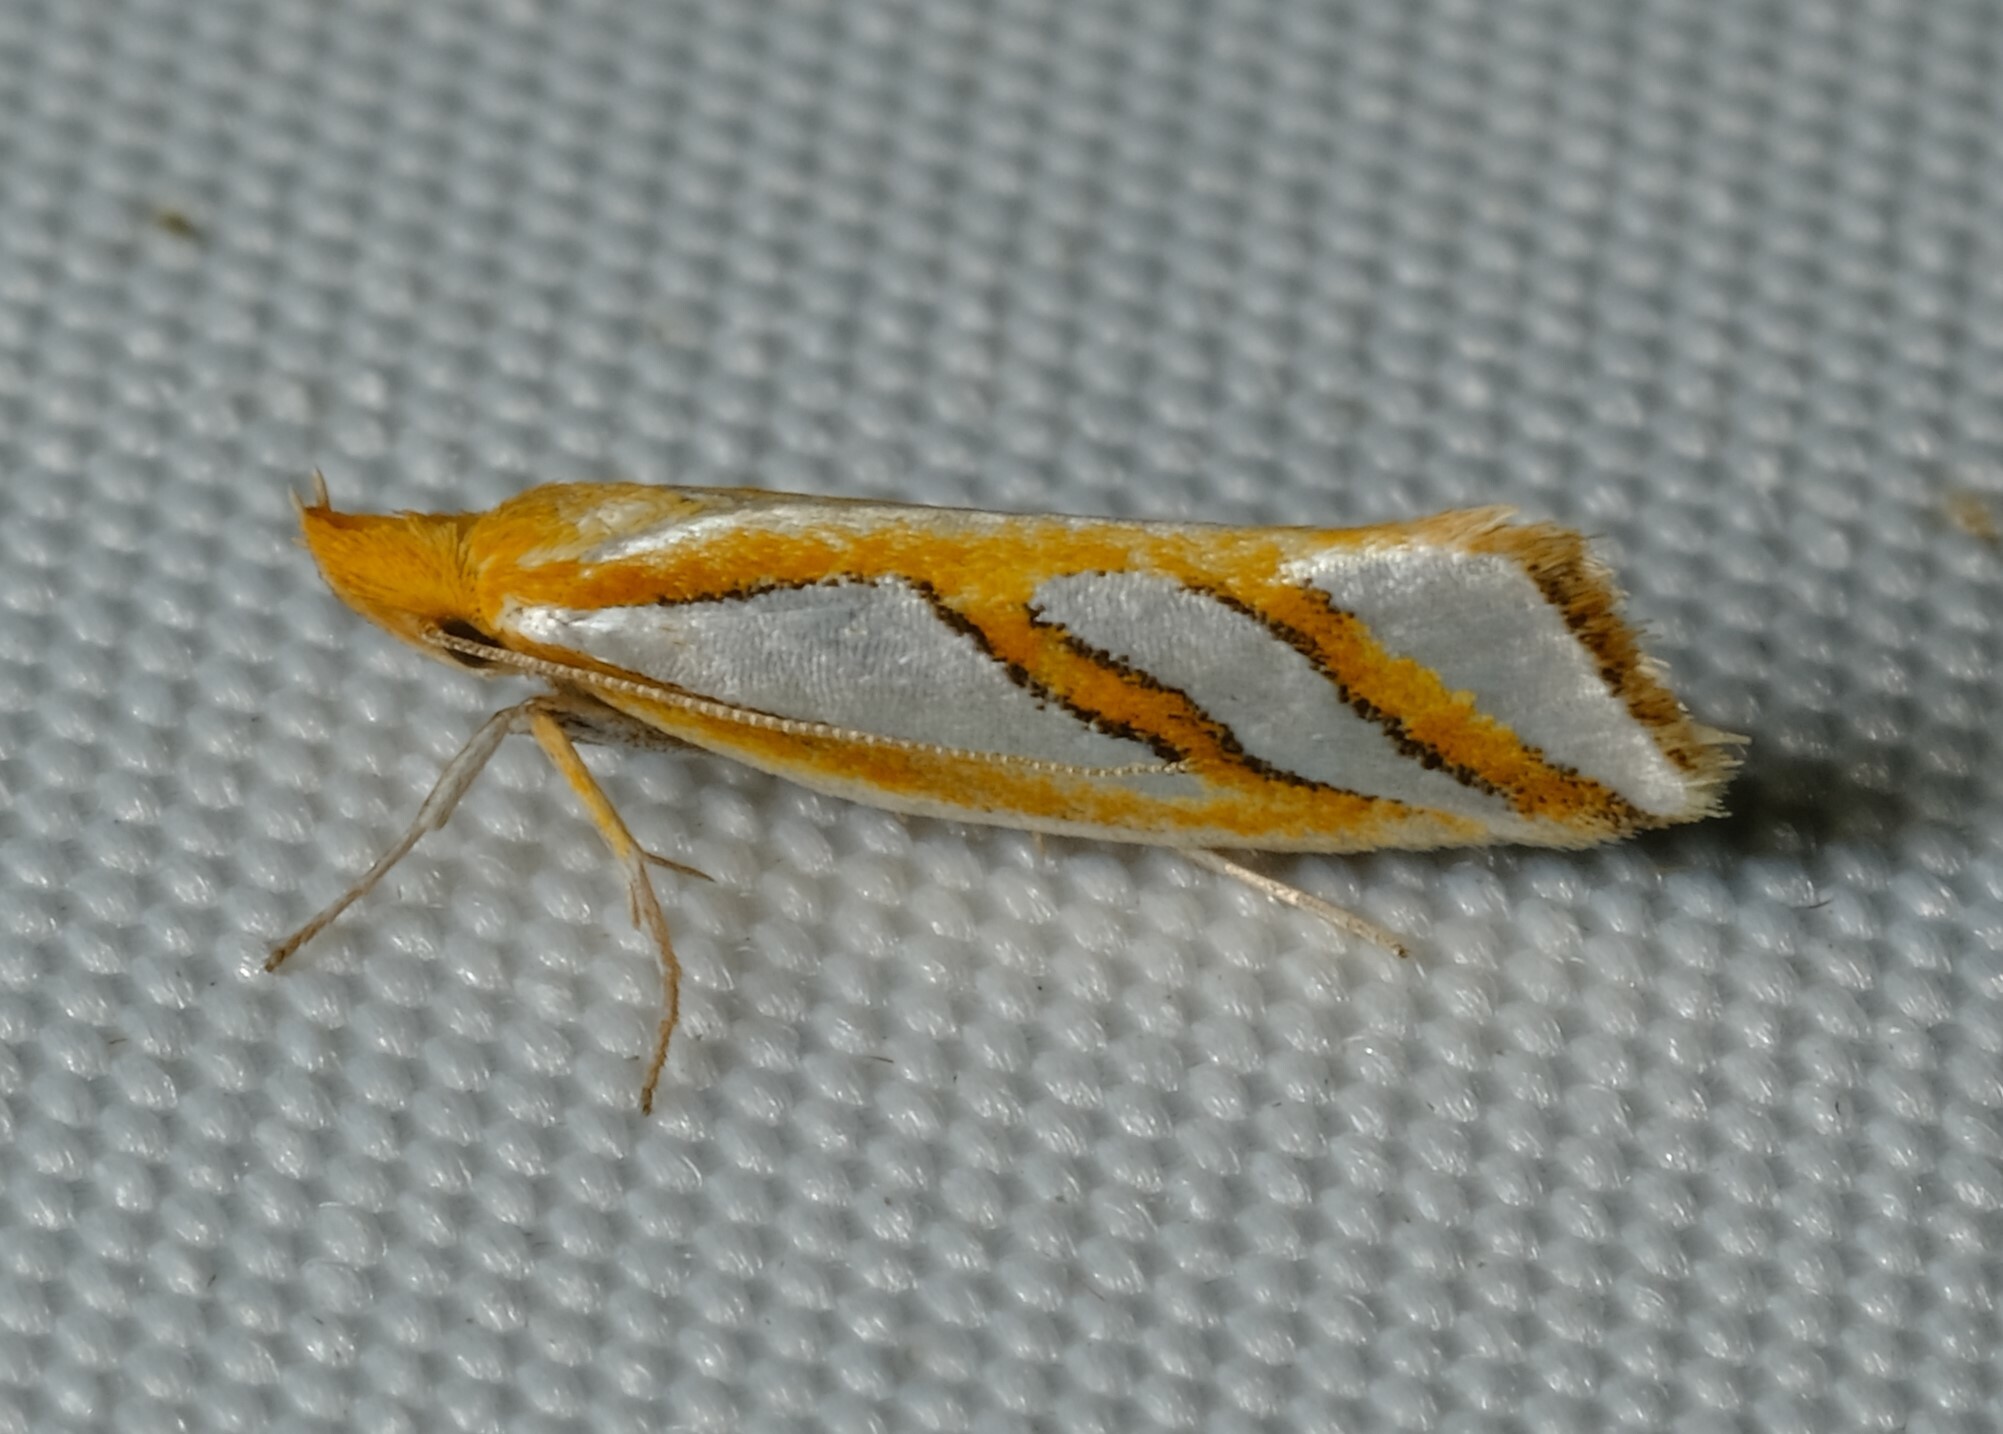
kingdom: Animalia
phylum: Arthropoda
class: Insecta
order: Lepidoptera
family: Depressariidae
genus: Thudaca
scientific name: Thudaca obliquella
